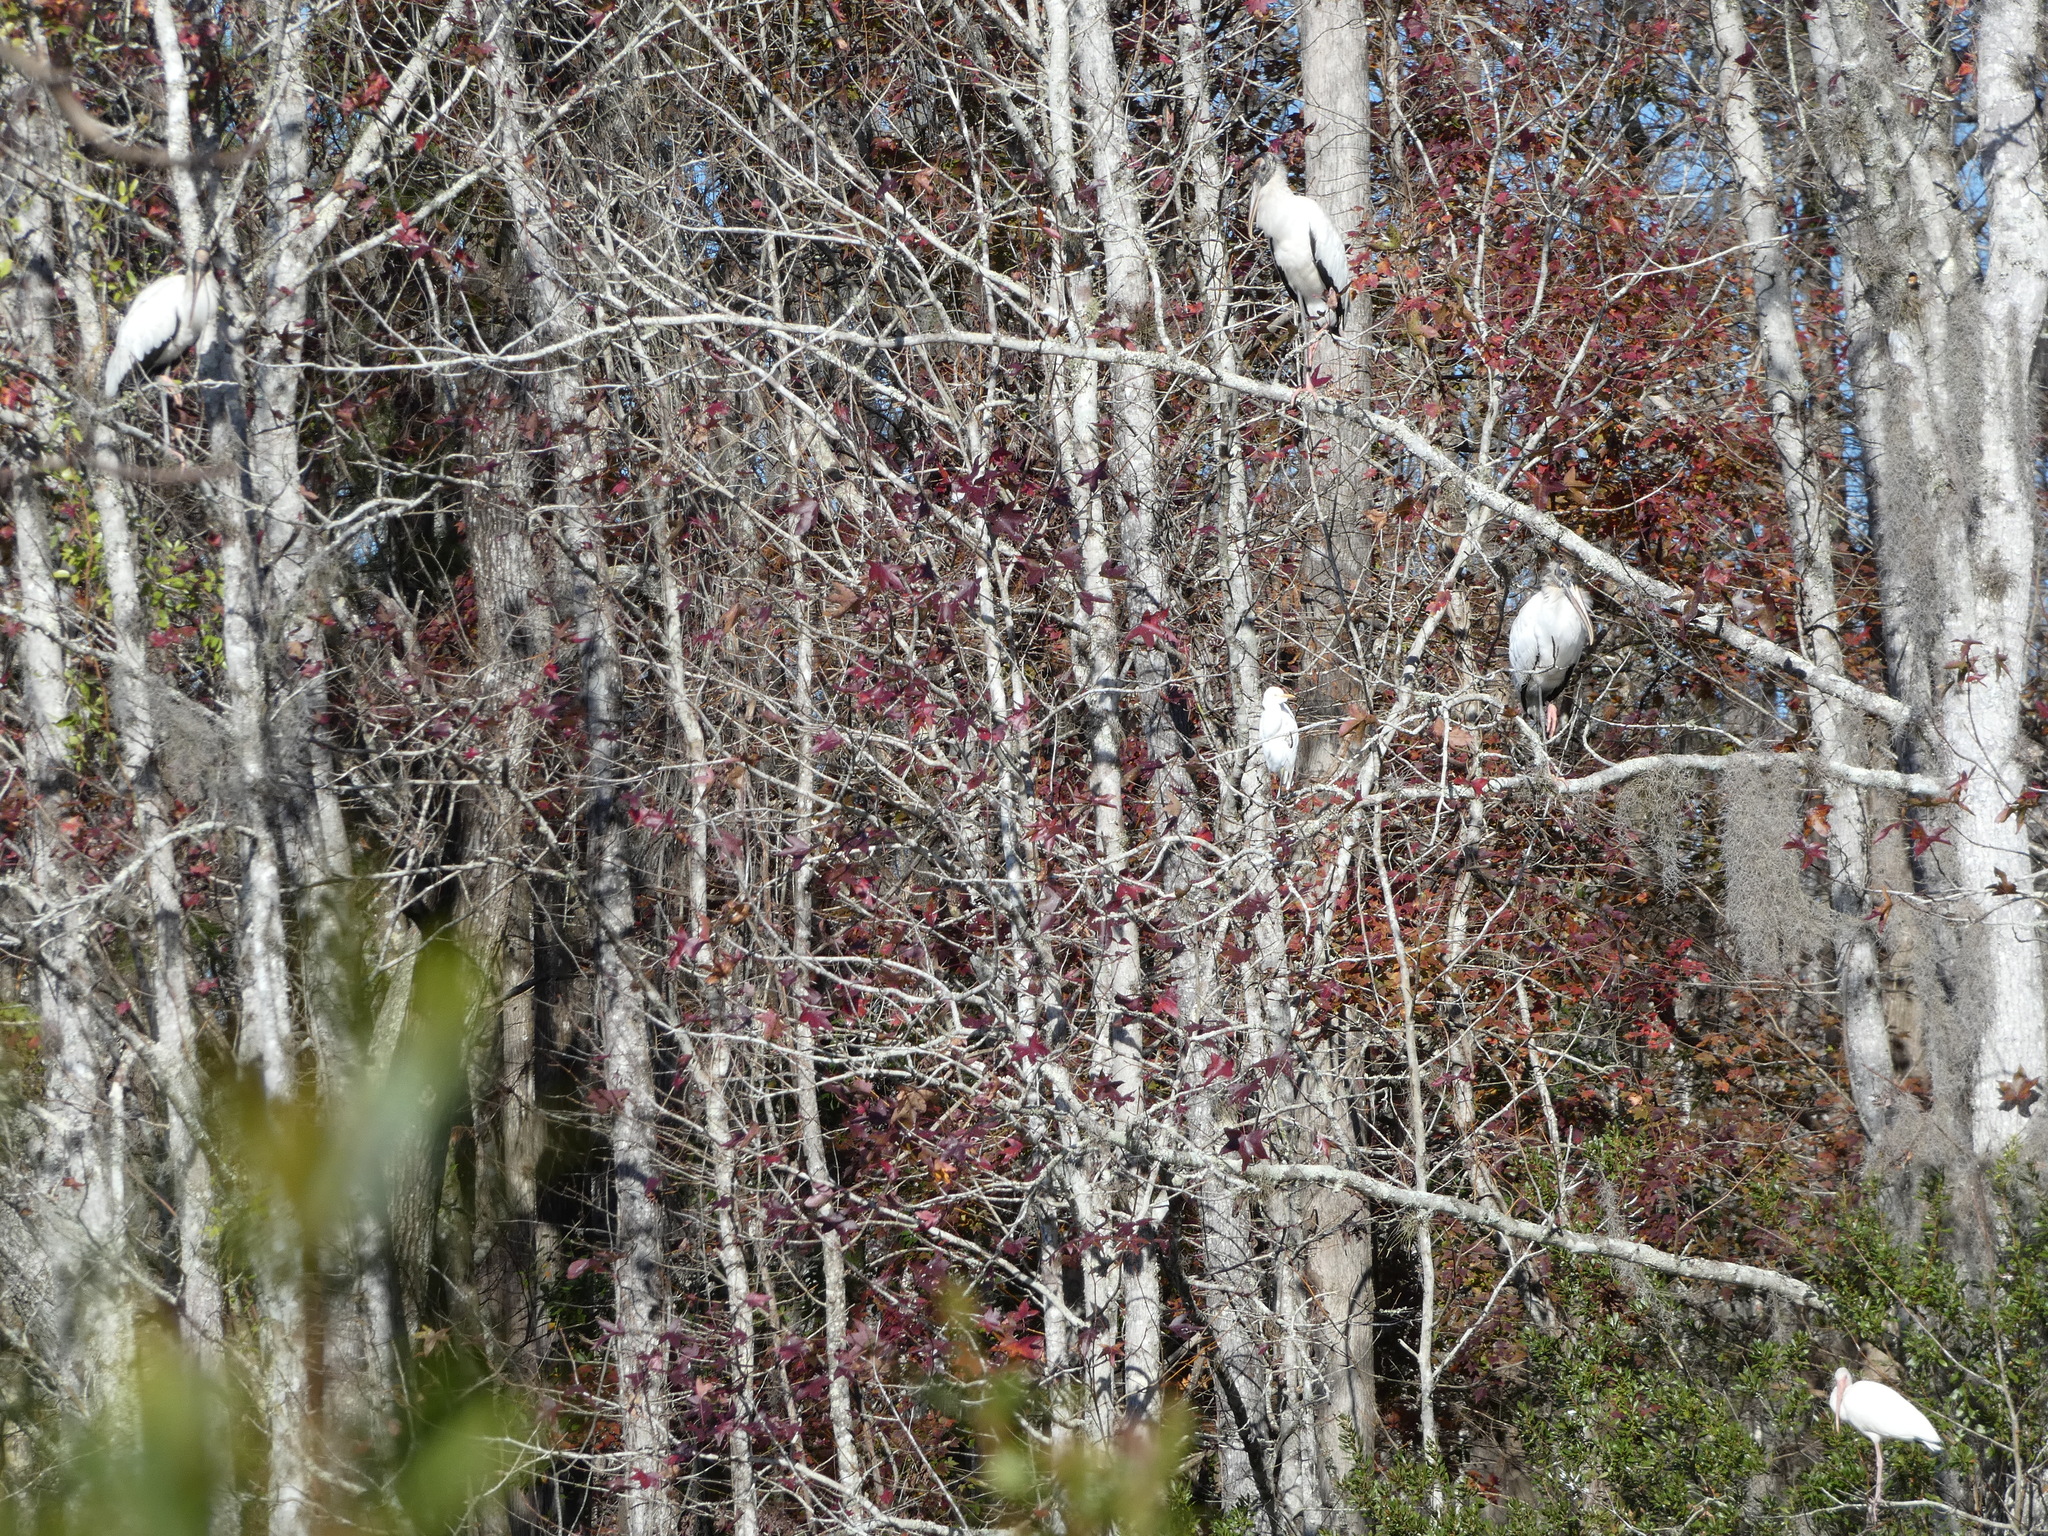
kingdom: Animalia
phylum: Chordata
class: Aves
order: Ciconiiformes
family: Ciconiidae
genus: Mycteria
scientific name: Mycteria americana
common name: Wood stork
